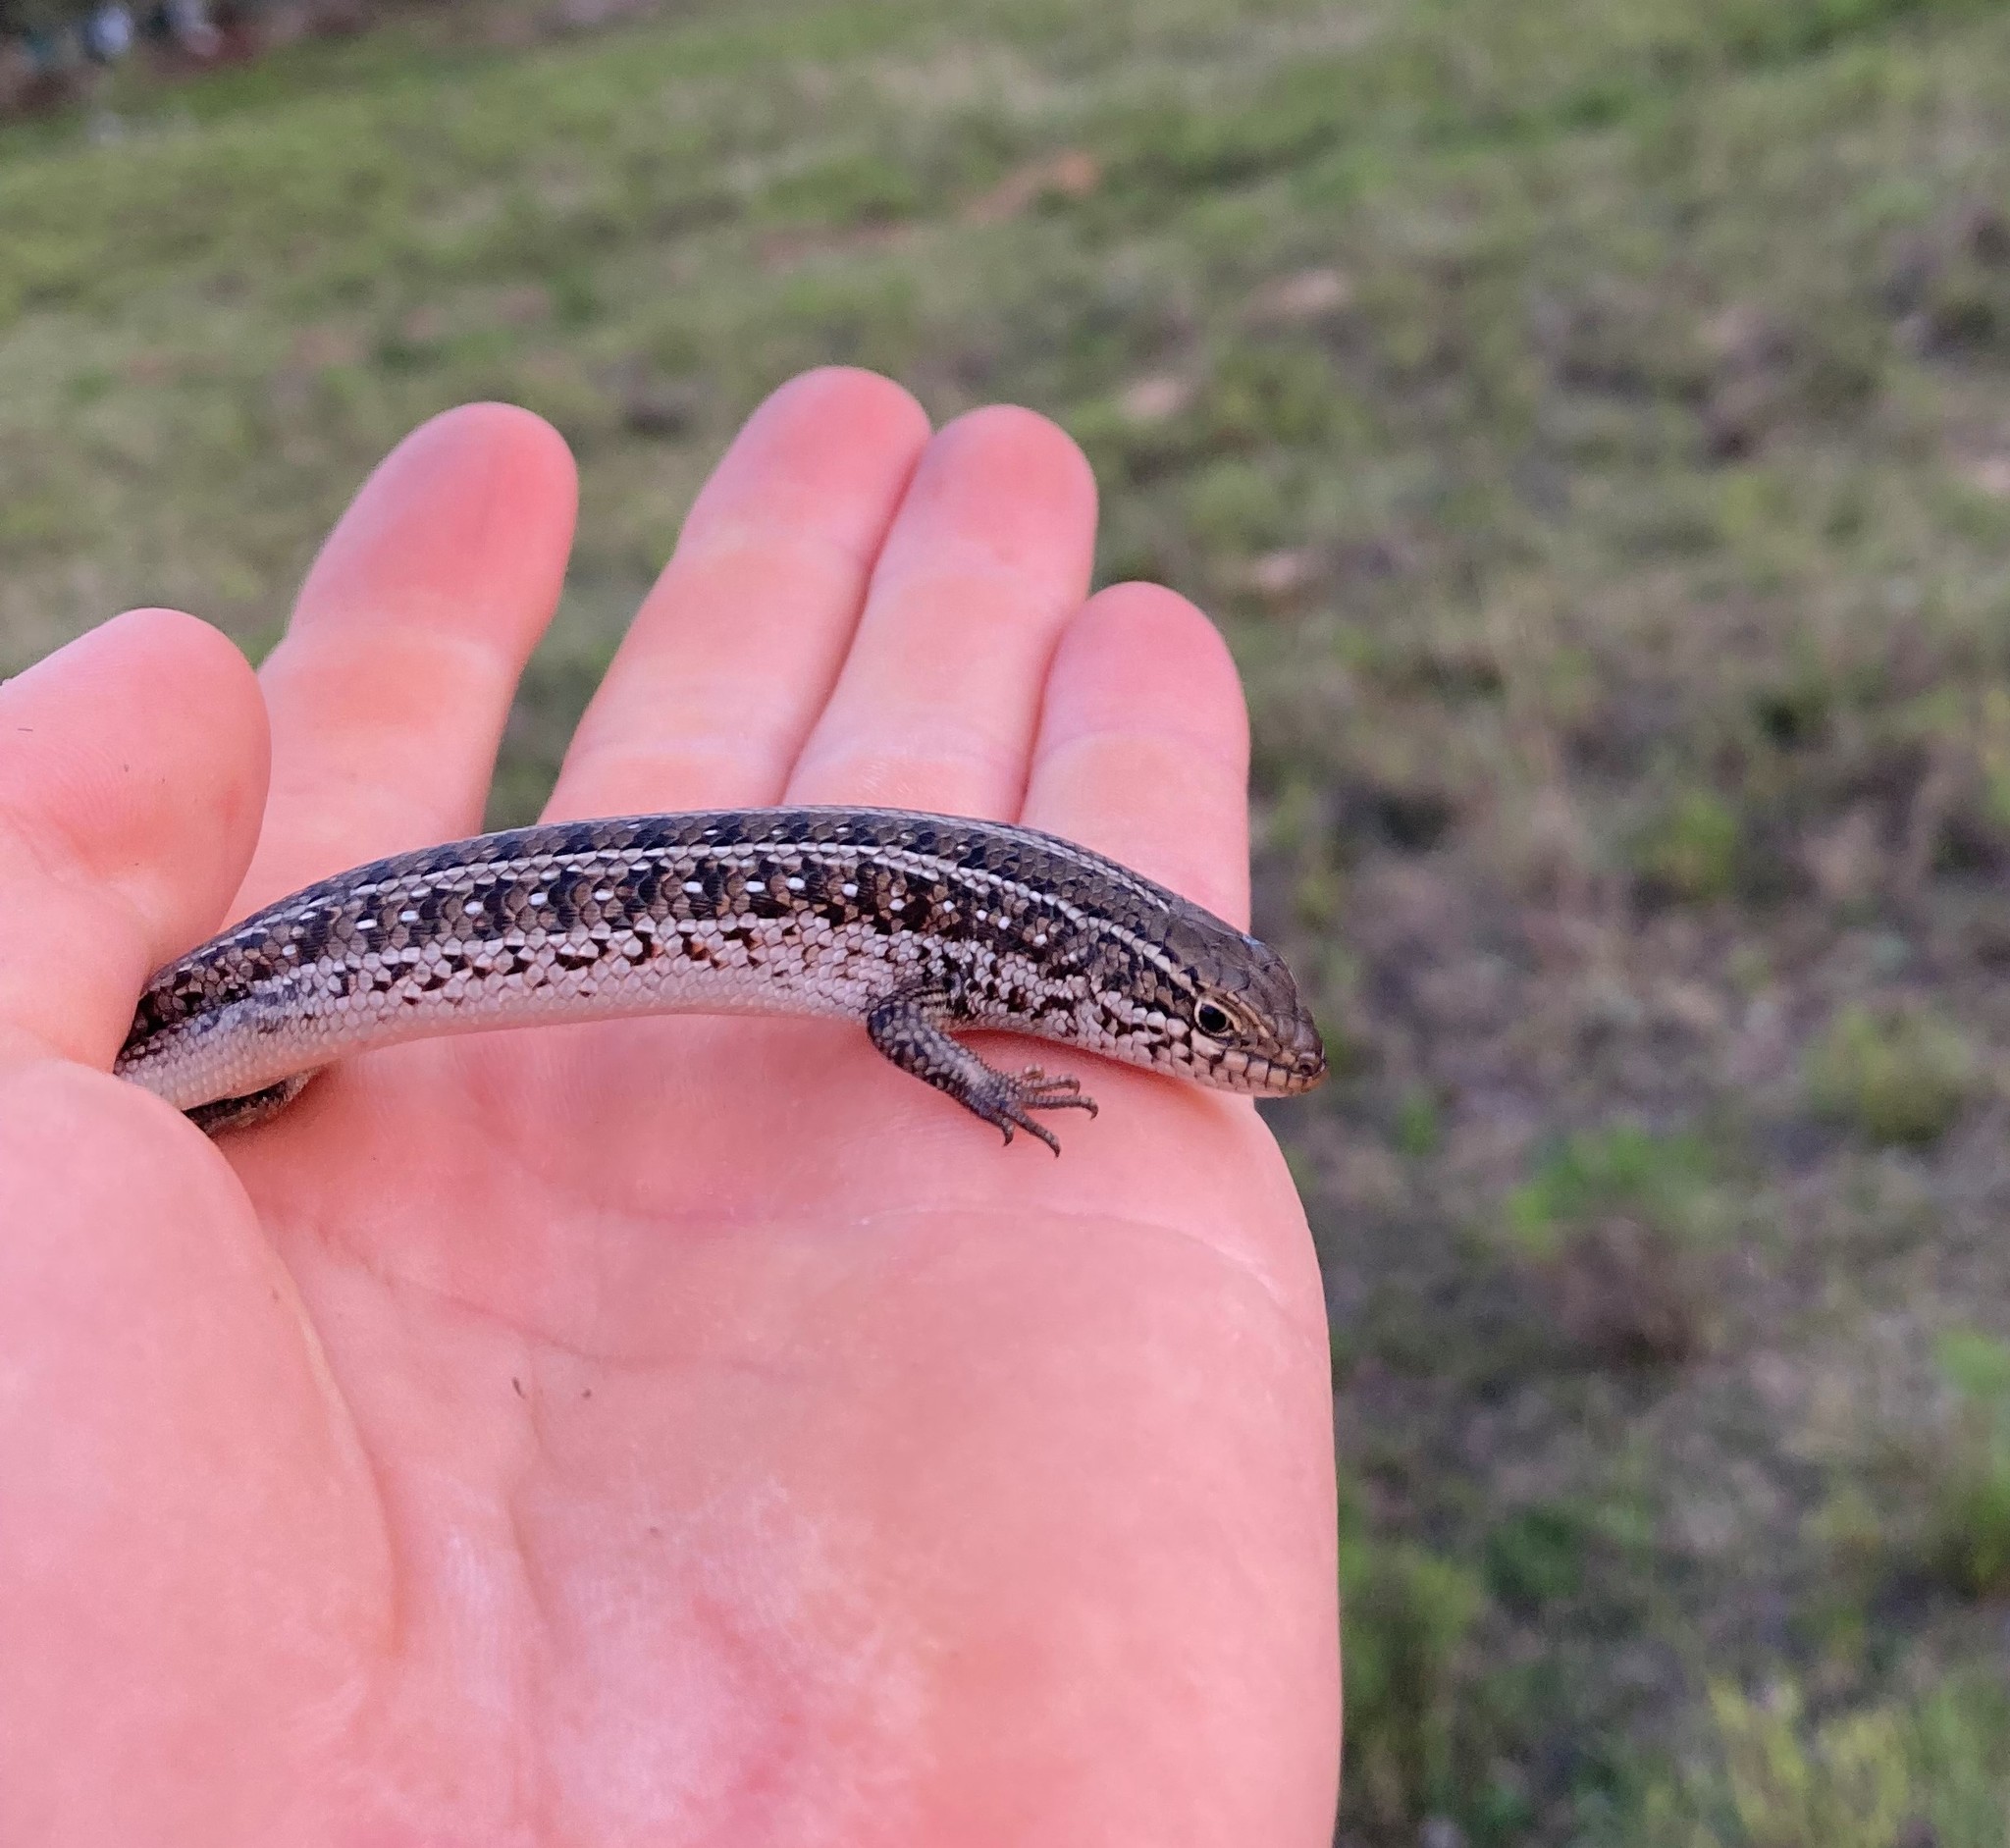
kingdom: Animalia
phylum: Chordata
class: Squamata
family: Scincidae
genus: Trachylepis
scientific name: Trachylepis capensis
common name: Cape skink
